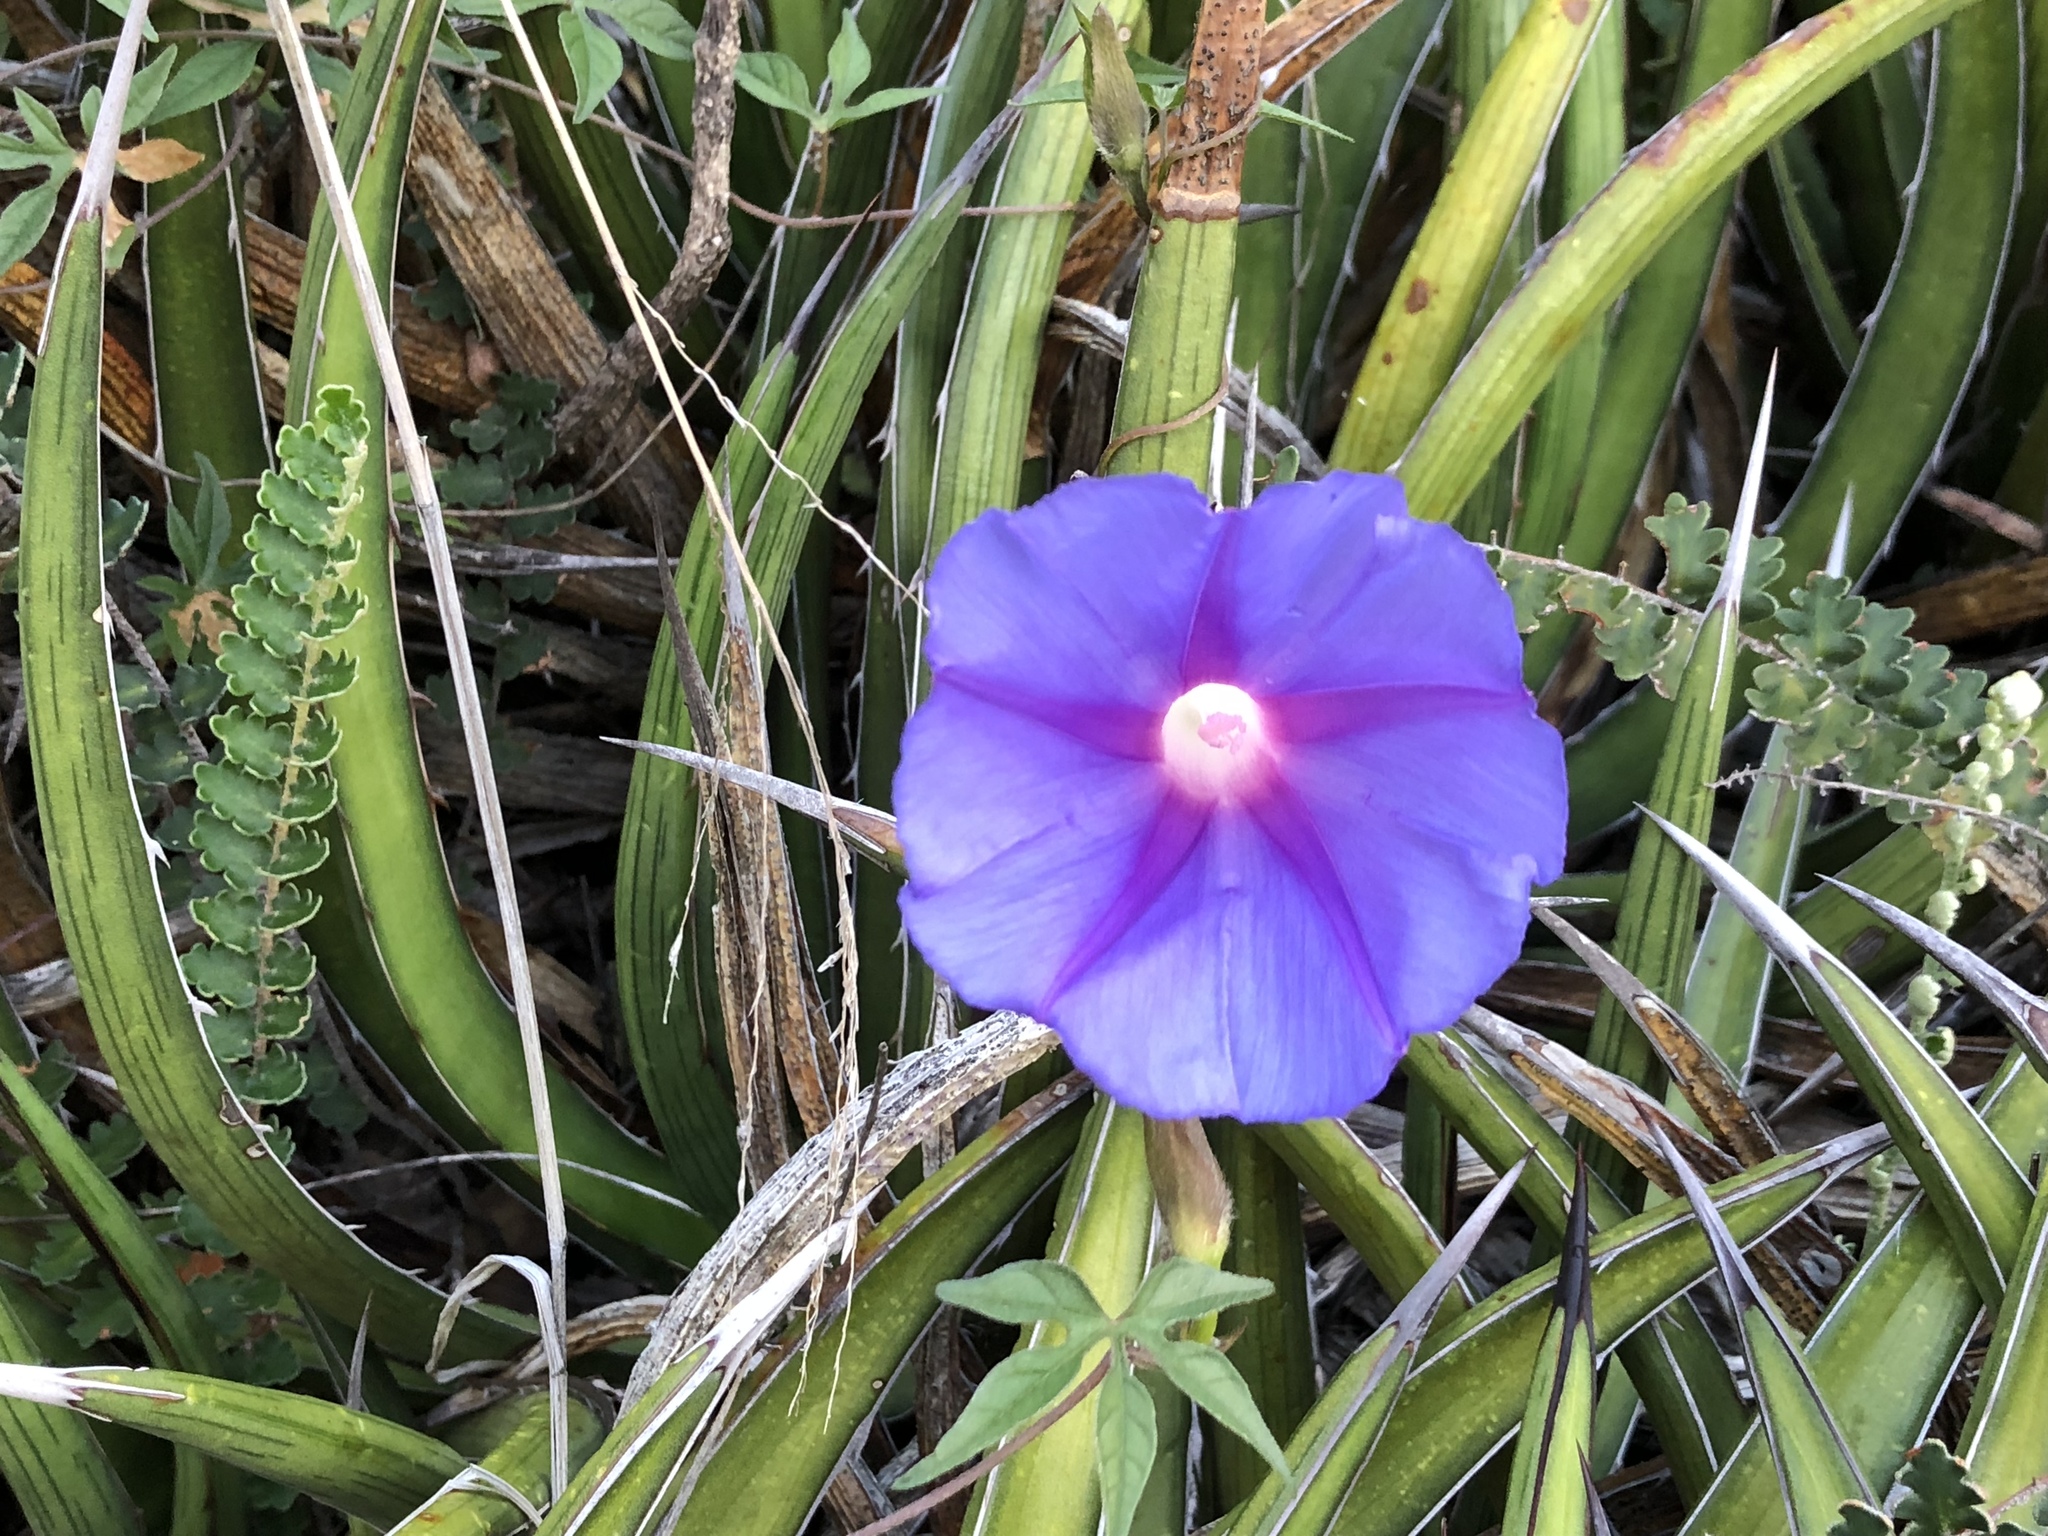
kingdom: Plantae
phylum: Tracheophyta
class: Magnoliopsida
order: Solanales
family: Convolvulaceae
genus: Ipomoea
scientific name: Ipomoea pubescens
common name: Silky morning-glory
